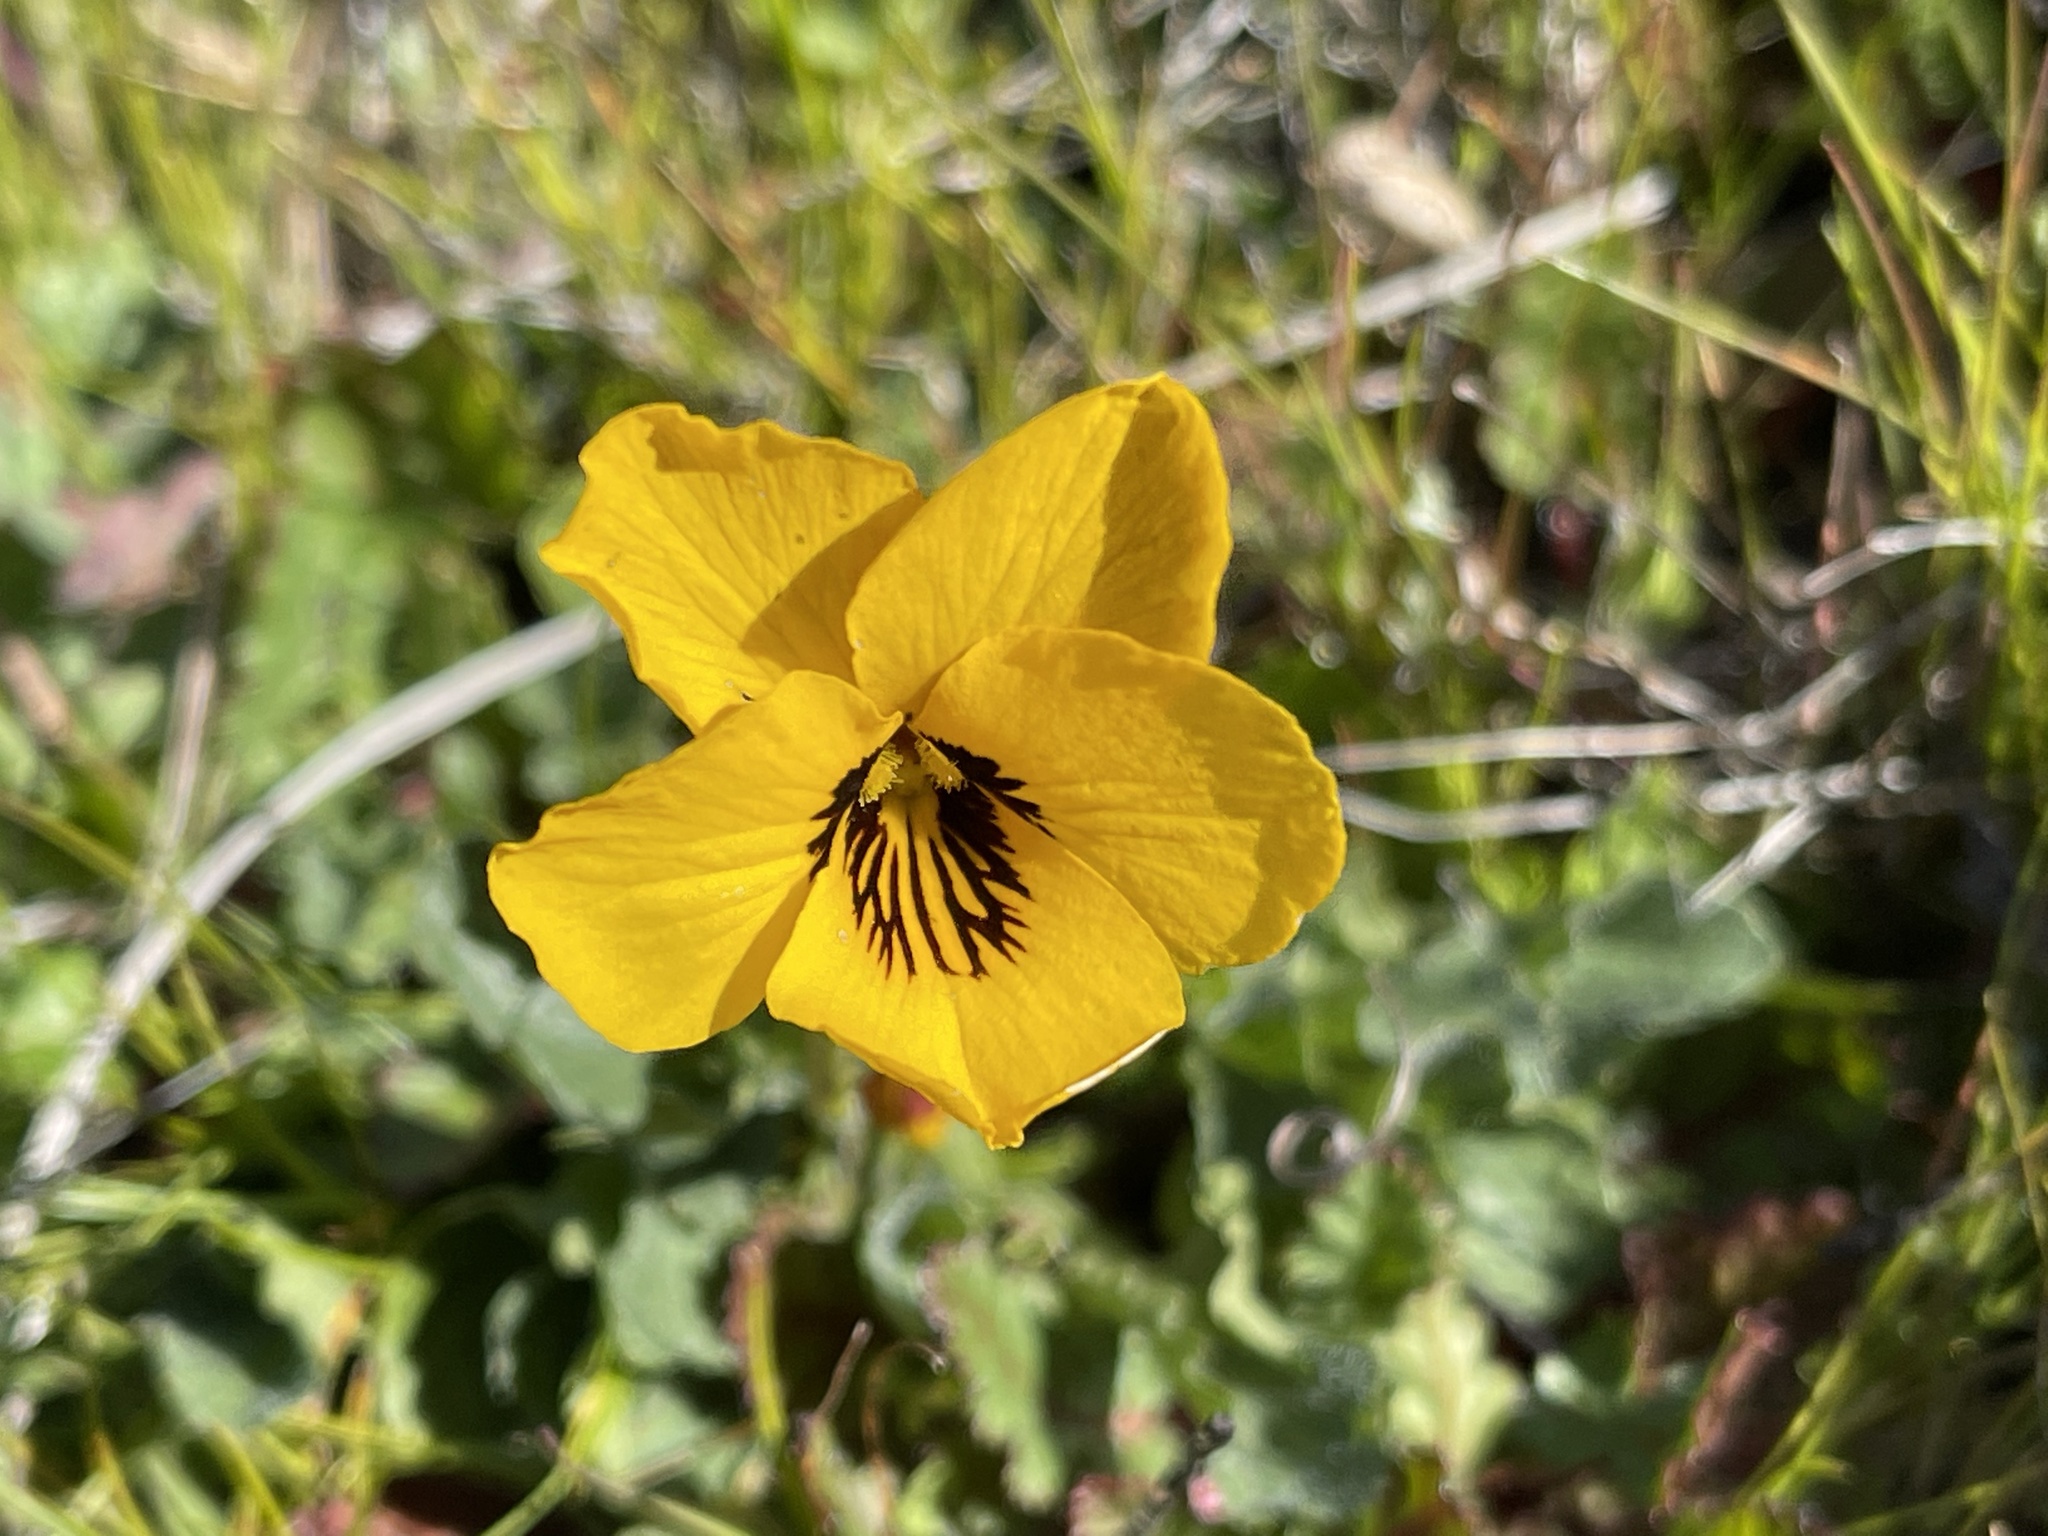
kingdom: Plantae
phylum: Tracheophyta
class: Magnoliopsida
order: Malpighiales
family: Violaceae
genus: Viola
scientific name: Viola pedunculata
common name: California golden violet
